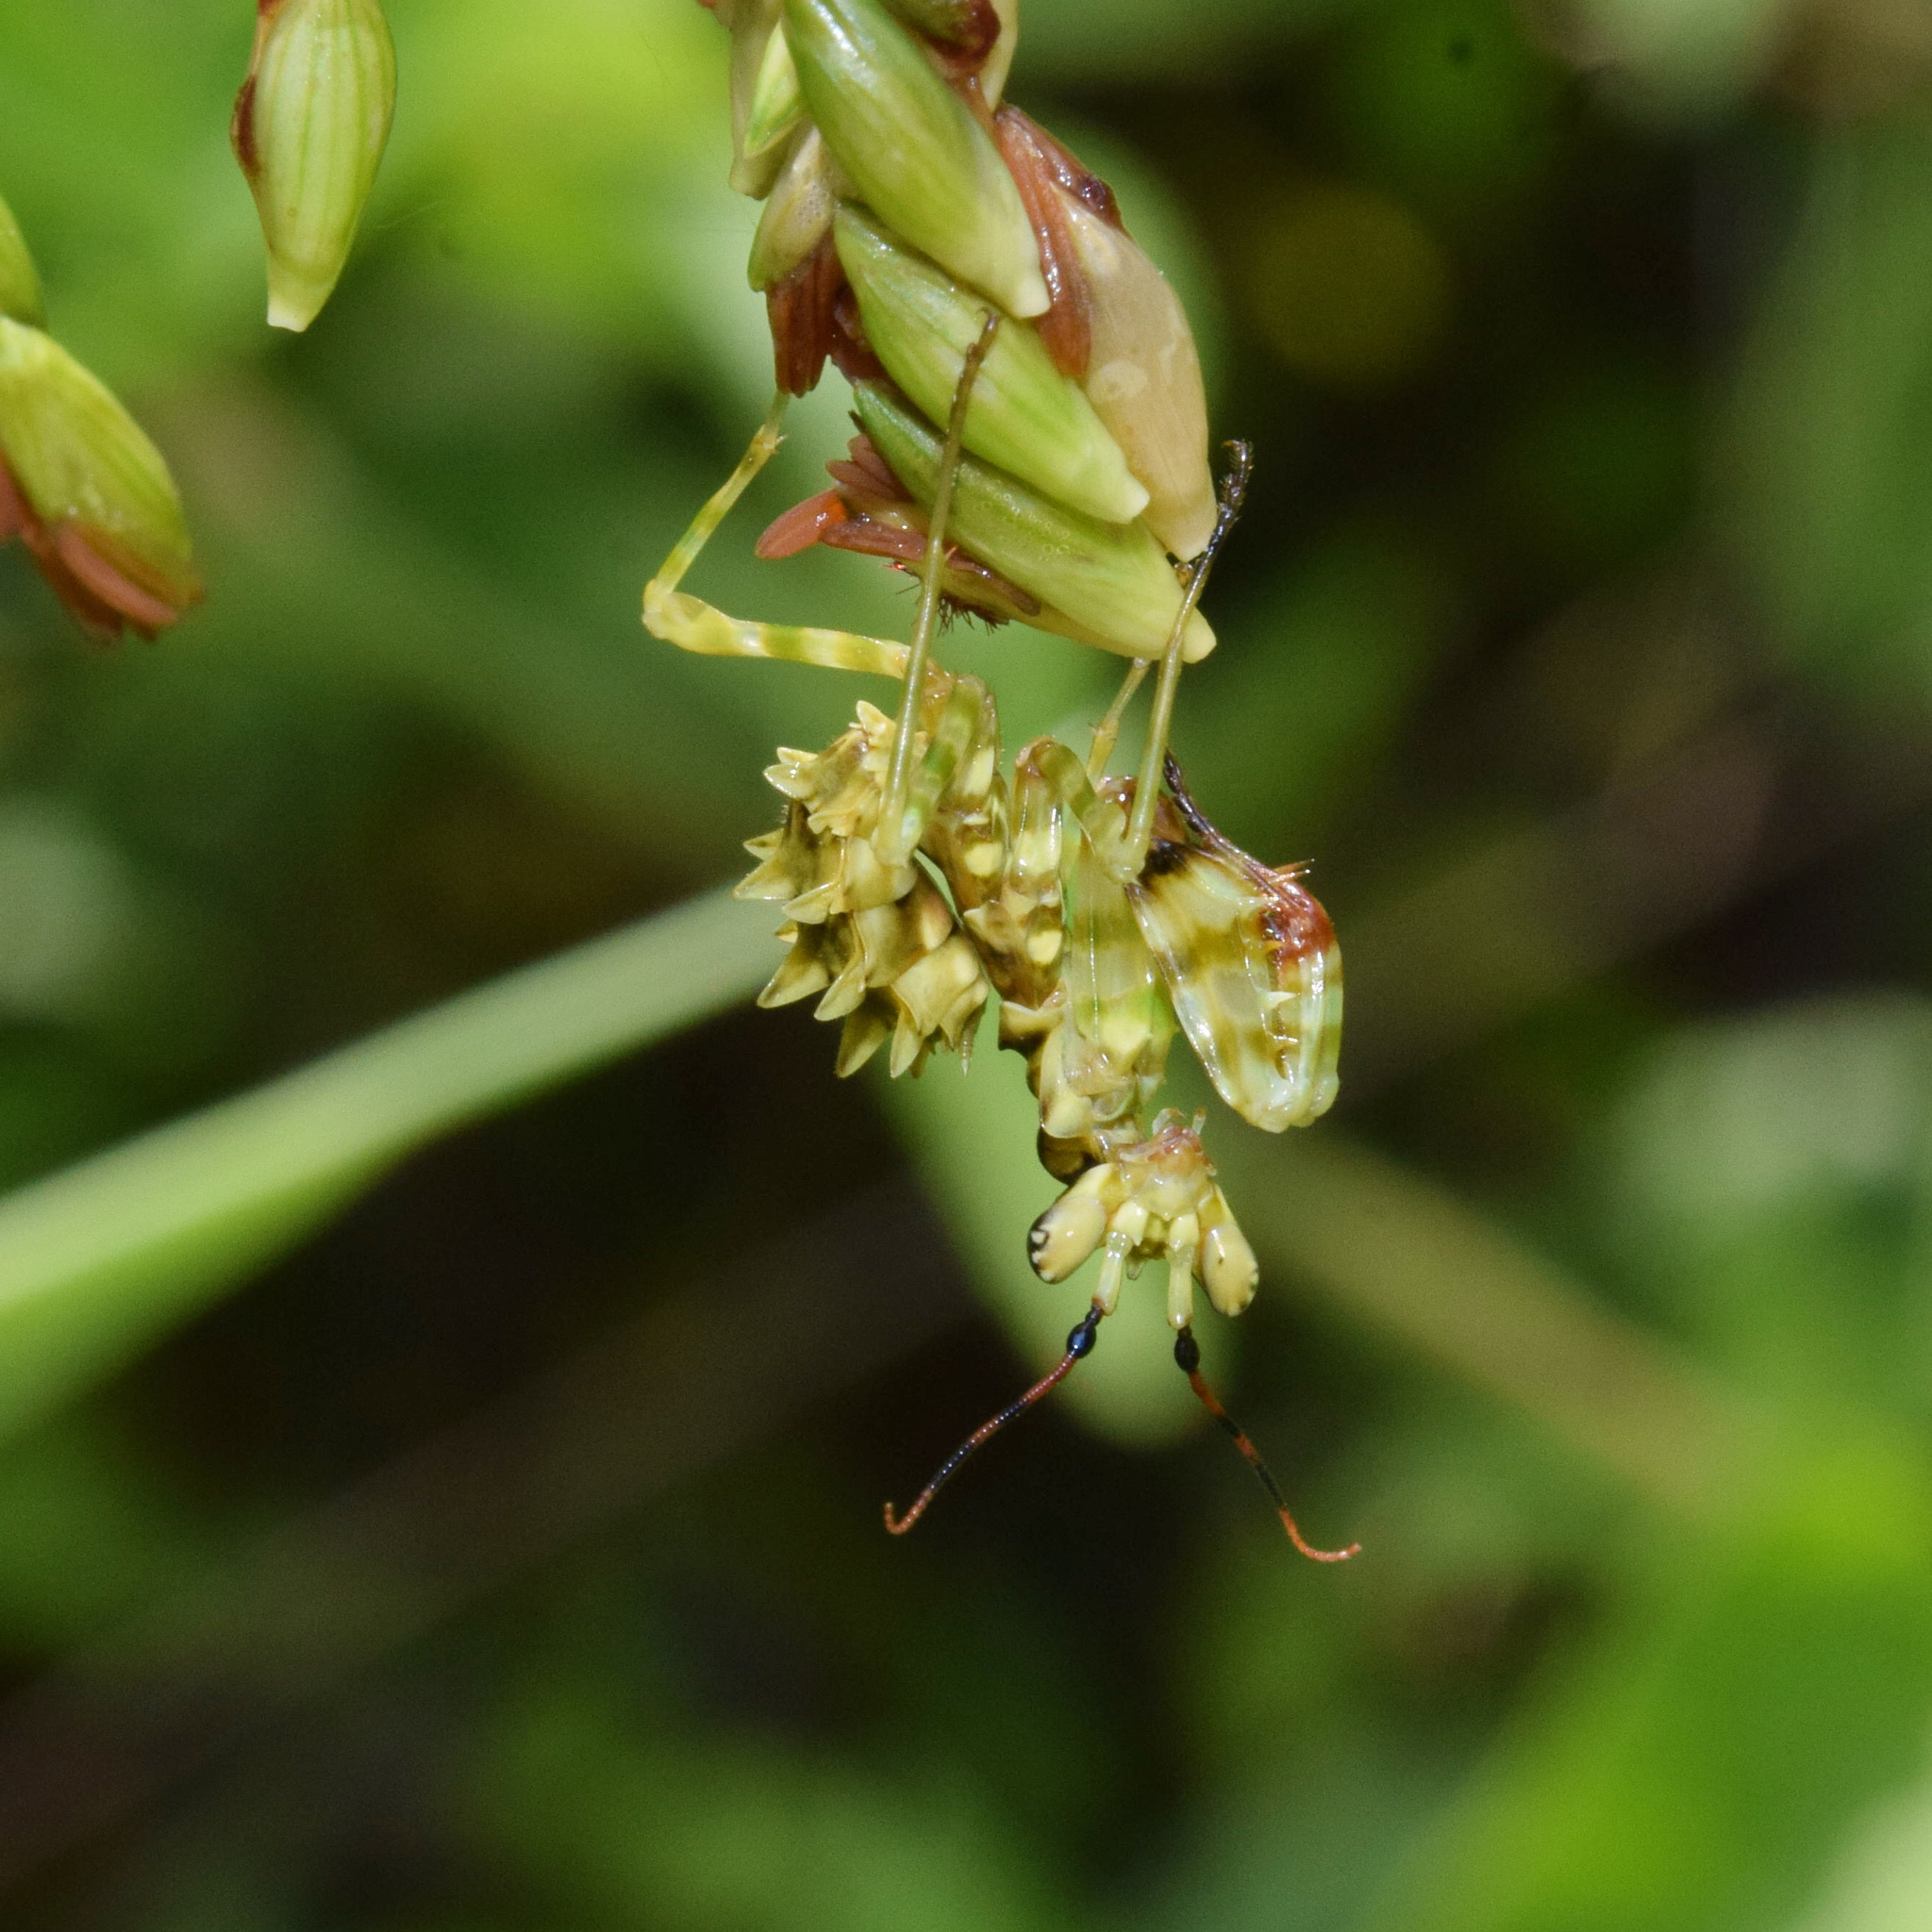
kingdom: Animalia
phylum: Arthropoda
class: Insecta
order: Mantodea
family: Hymenopodidae
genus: Pseudocreobotra
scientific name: Pseudocreobotra wahlbergi
